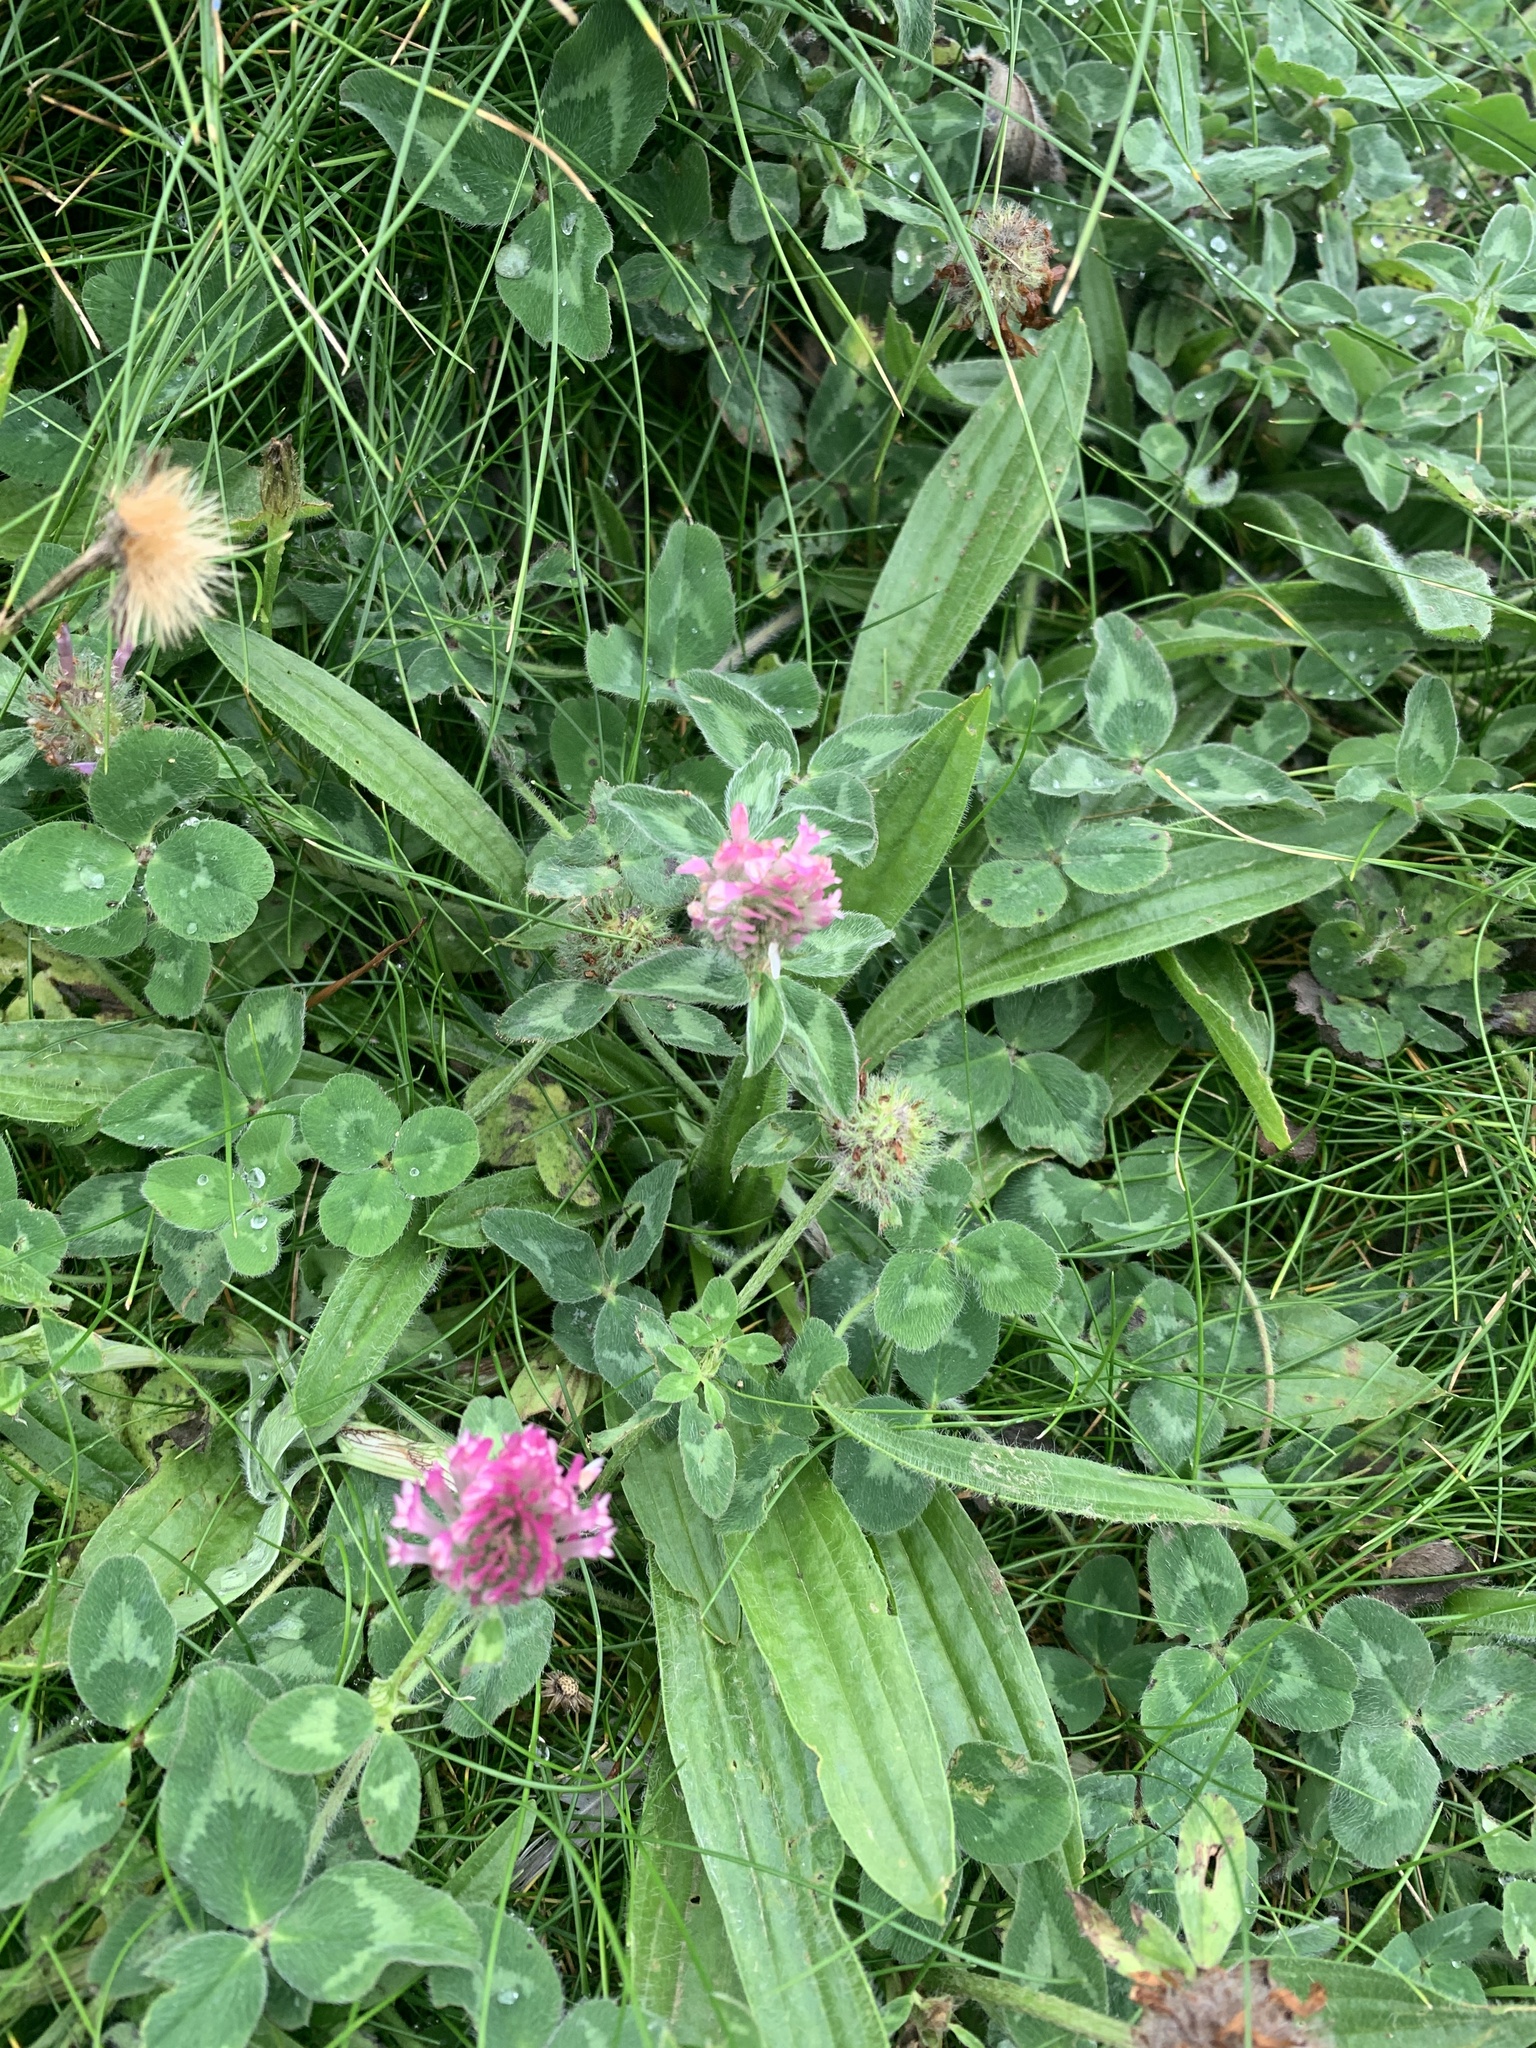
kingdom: Plantae
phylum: Tracheophyta
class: Magnoliopsida
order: Fabales
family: Fabaceae
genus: Trifolium
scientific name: Trifolium pratense
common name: Red clover
